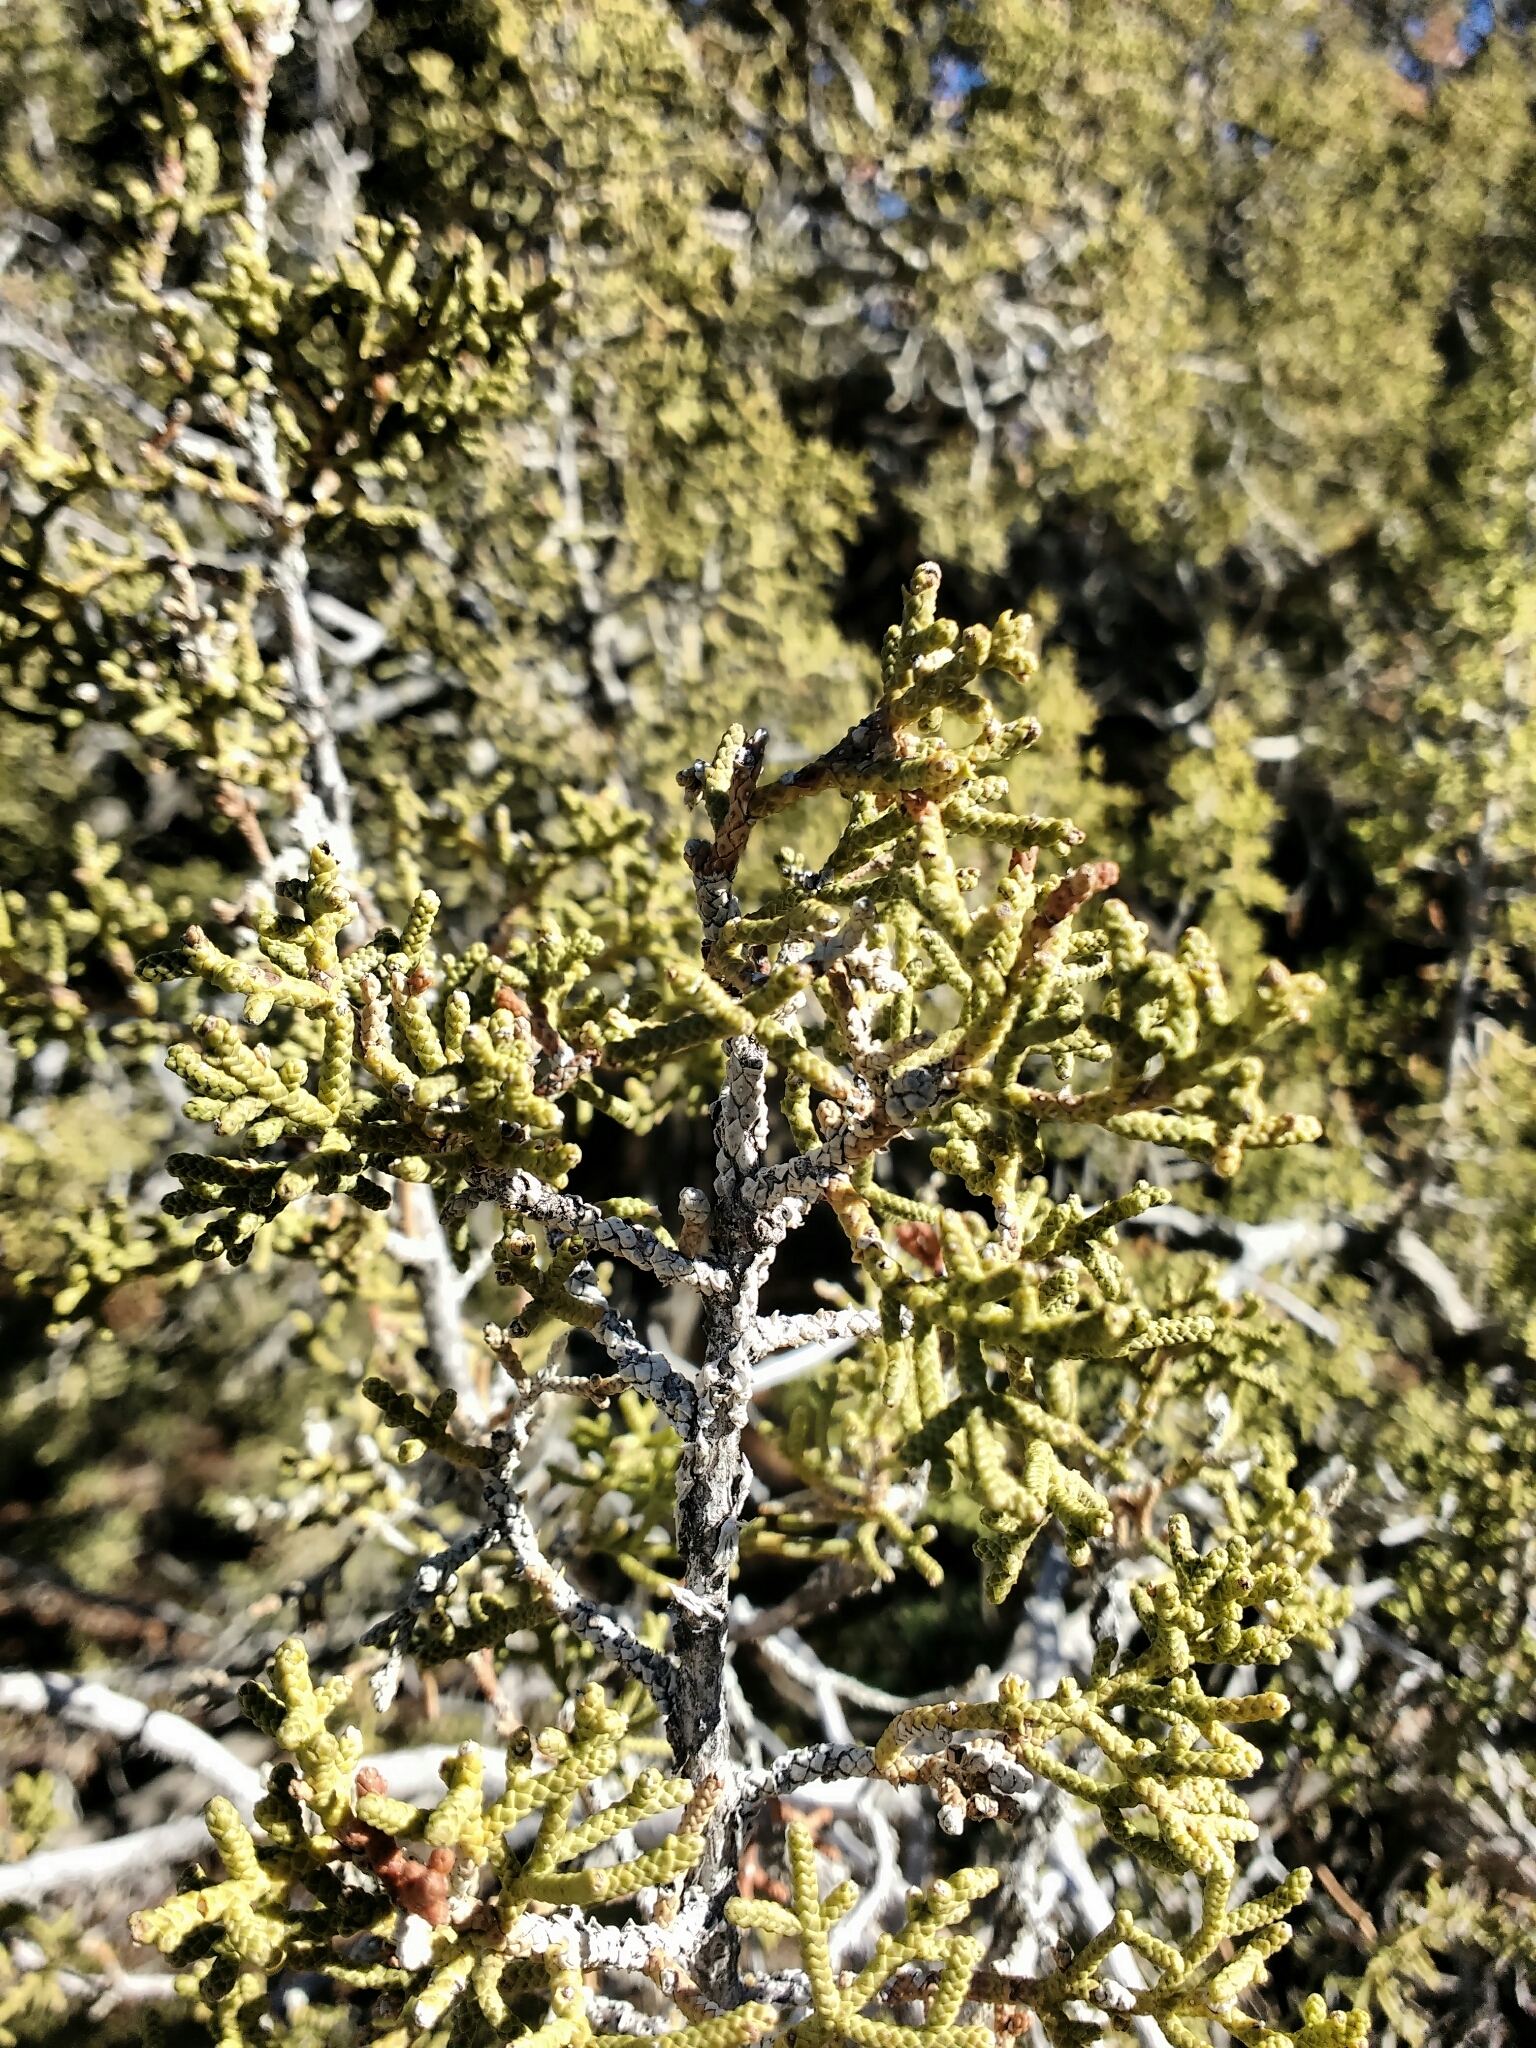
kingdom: Plantae
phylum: Tracheophyta
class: Pinopsida
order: Pinales
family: Cupressaceae
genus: Juniperus
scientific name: Juniperus californica
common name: California juniper
